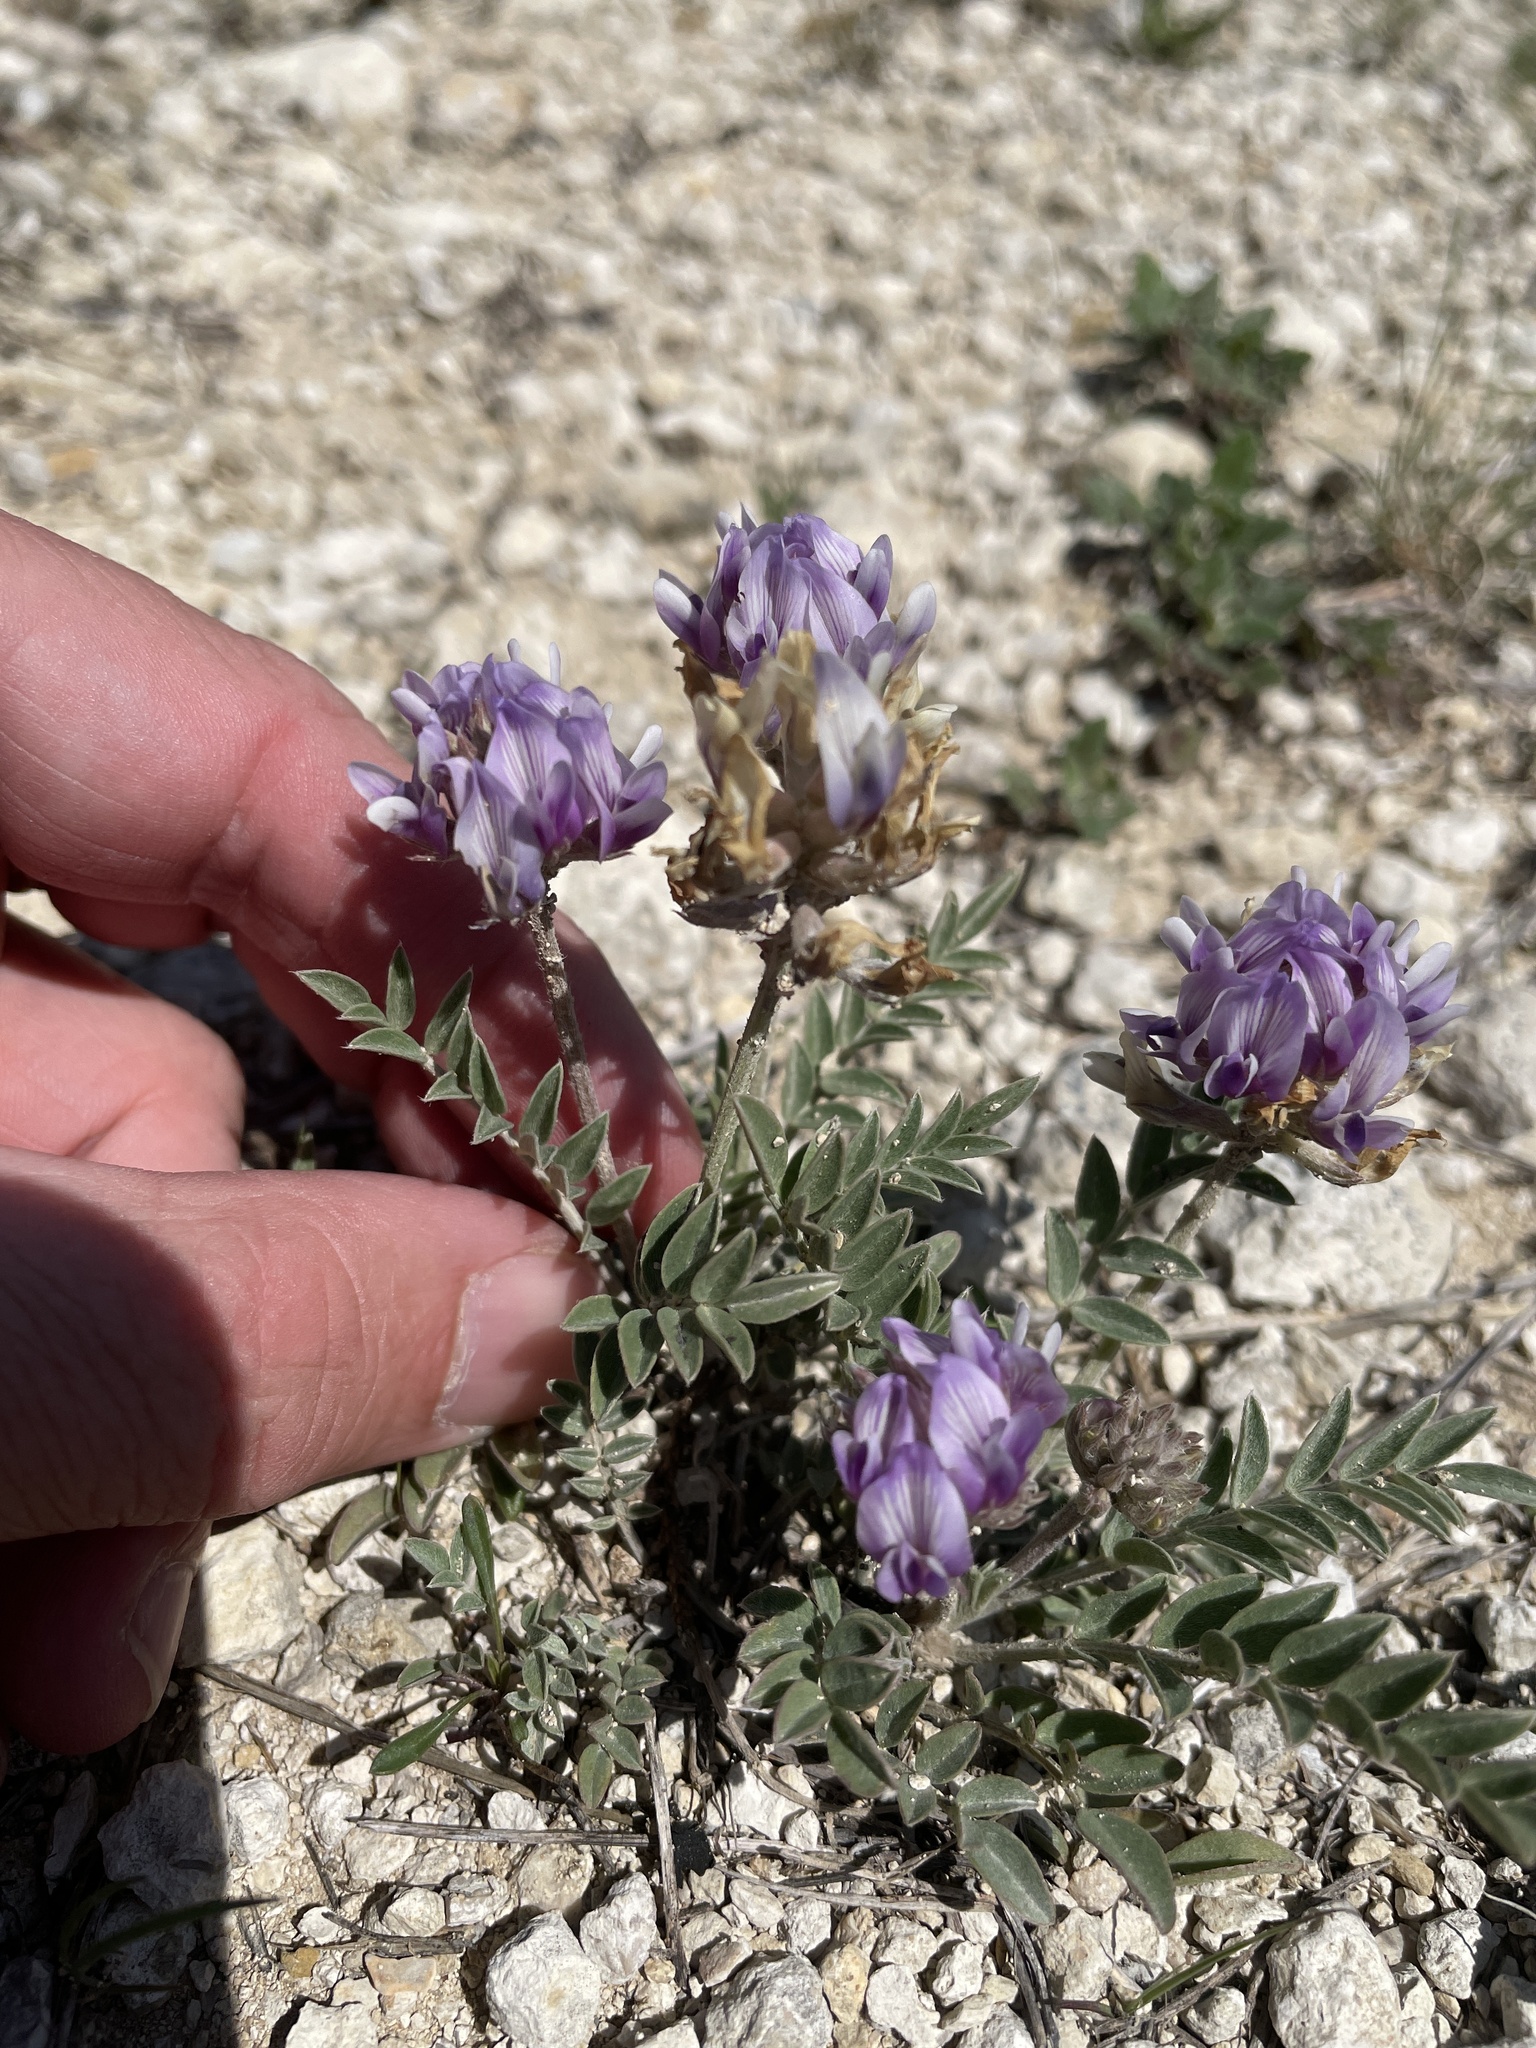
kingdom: Plantae
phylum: Tracheophyta
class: Magnoliopsida
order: Fabales
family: Fabaceae
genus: Astragalus
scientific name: Astragalus lotiflorus
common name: Lotus milk-vetch
